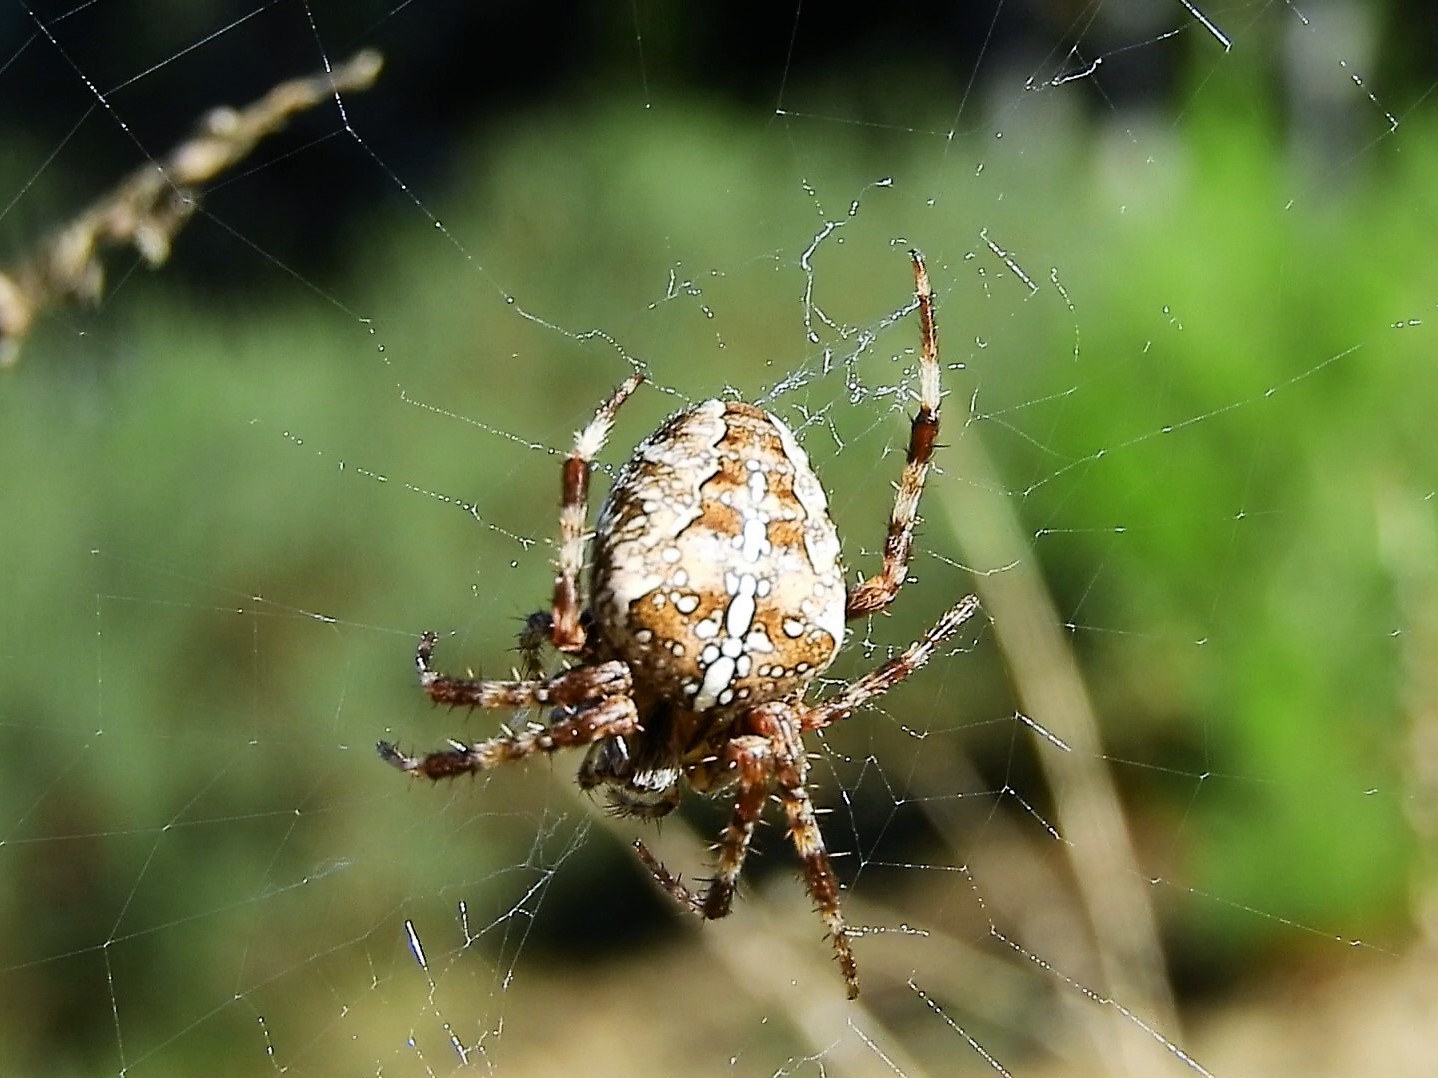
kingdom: Animalia
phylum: Arthropoda
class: Arachnida
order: Araneae
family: Araneidae
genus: Araneus
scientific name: Araneus diadematus
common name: Cross orbweaver
